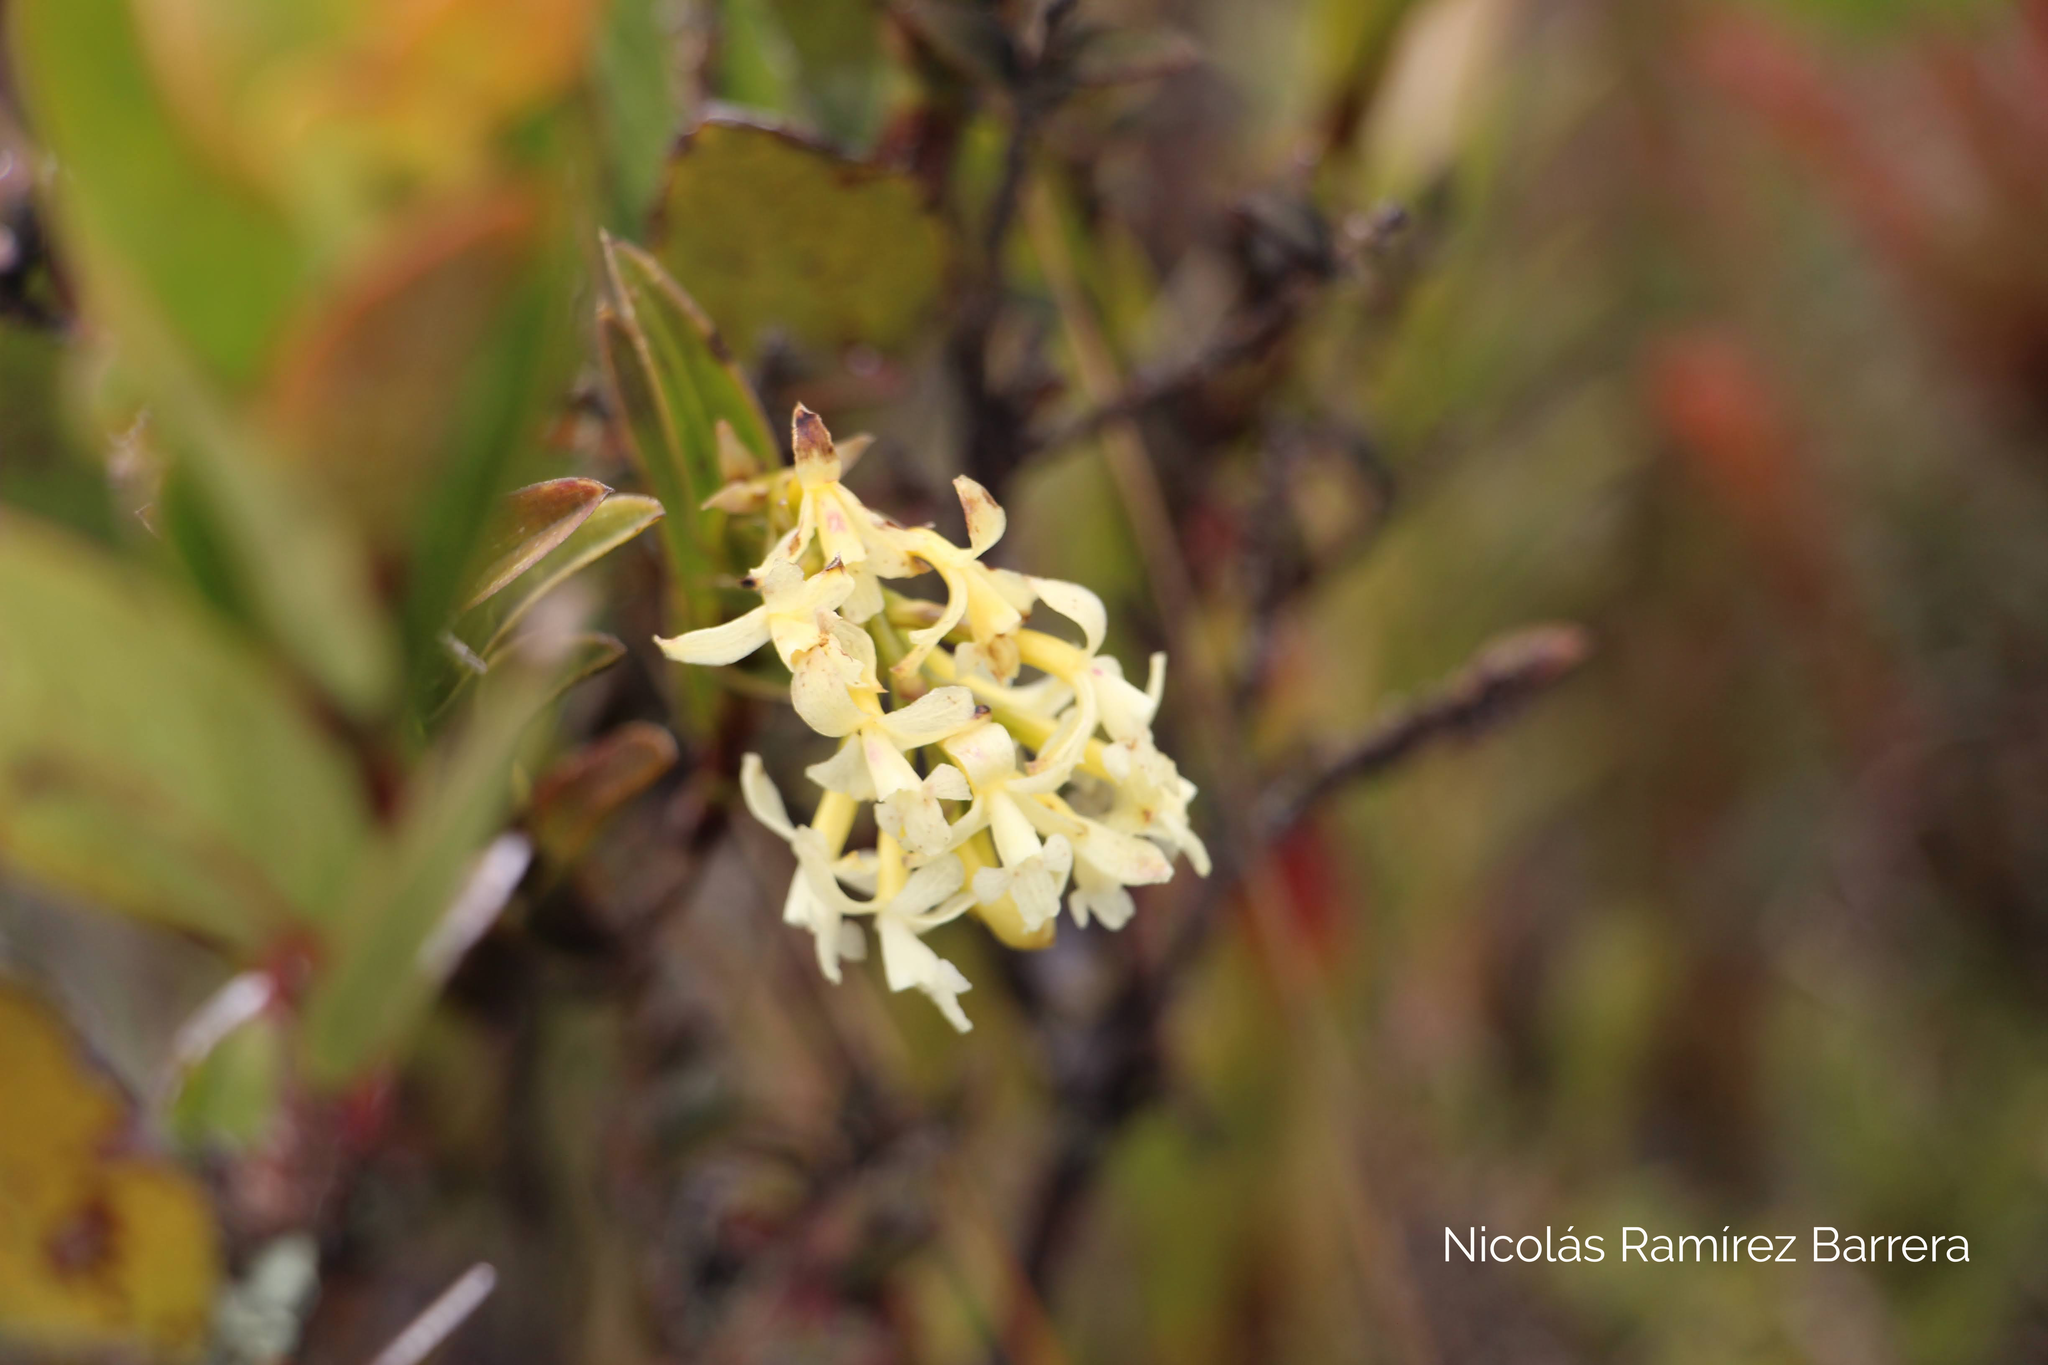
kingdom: Plantae
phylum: Tracheophyta
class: Liliopsida
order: Asparagales
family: Orchidaceae
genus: Epidendrum
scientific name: Epidendrum chioneum
